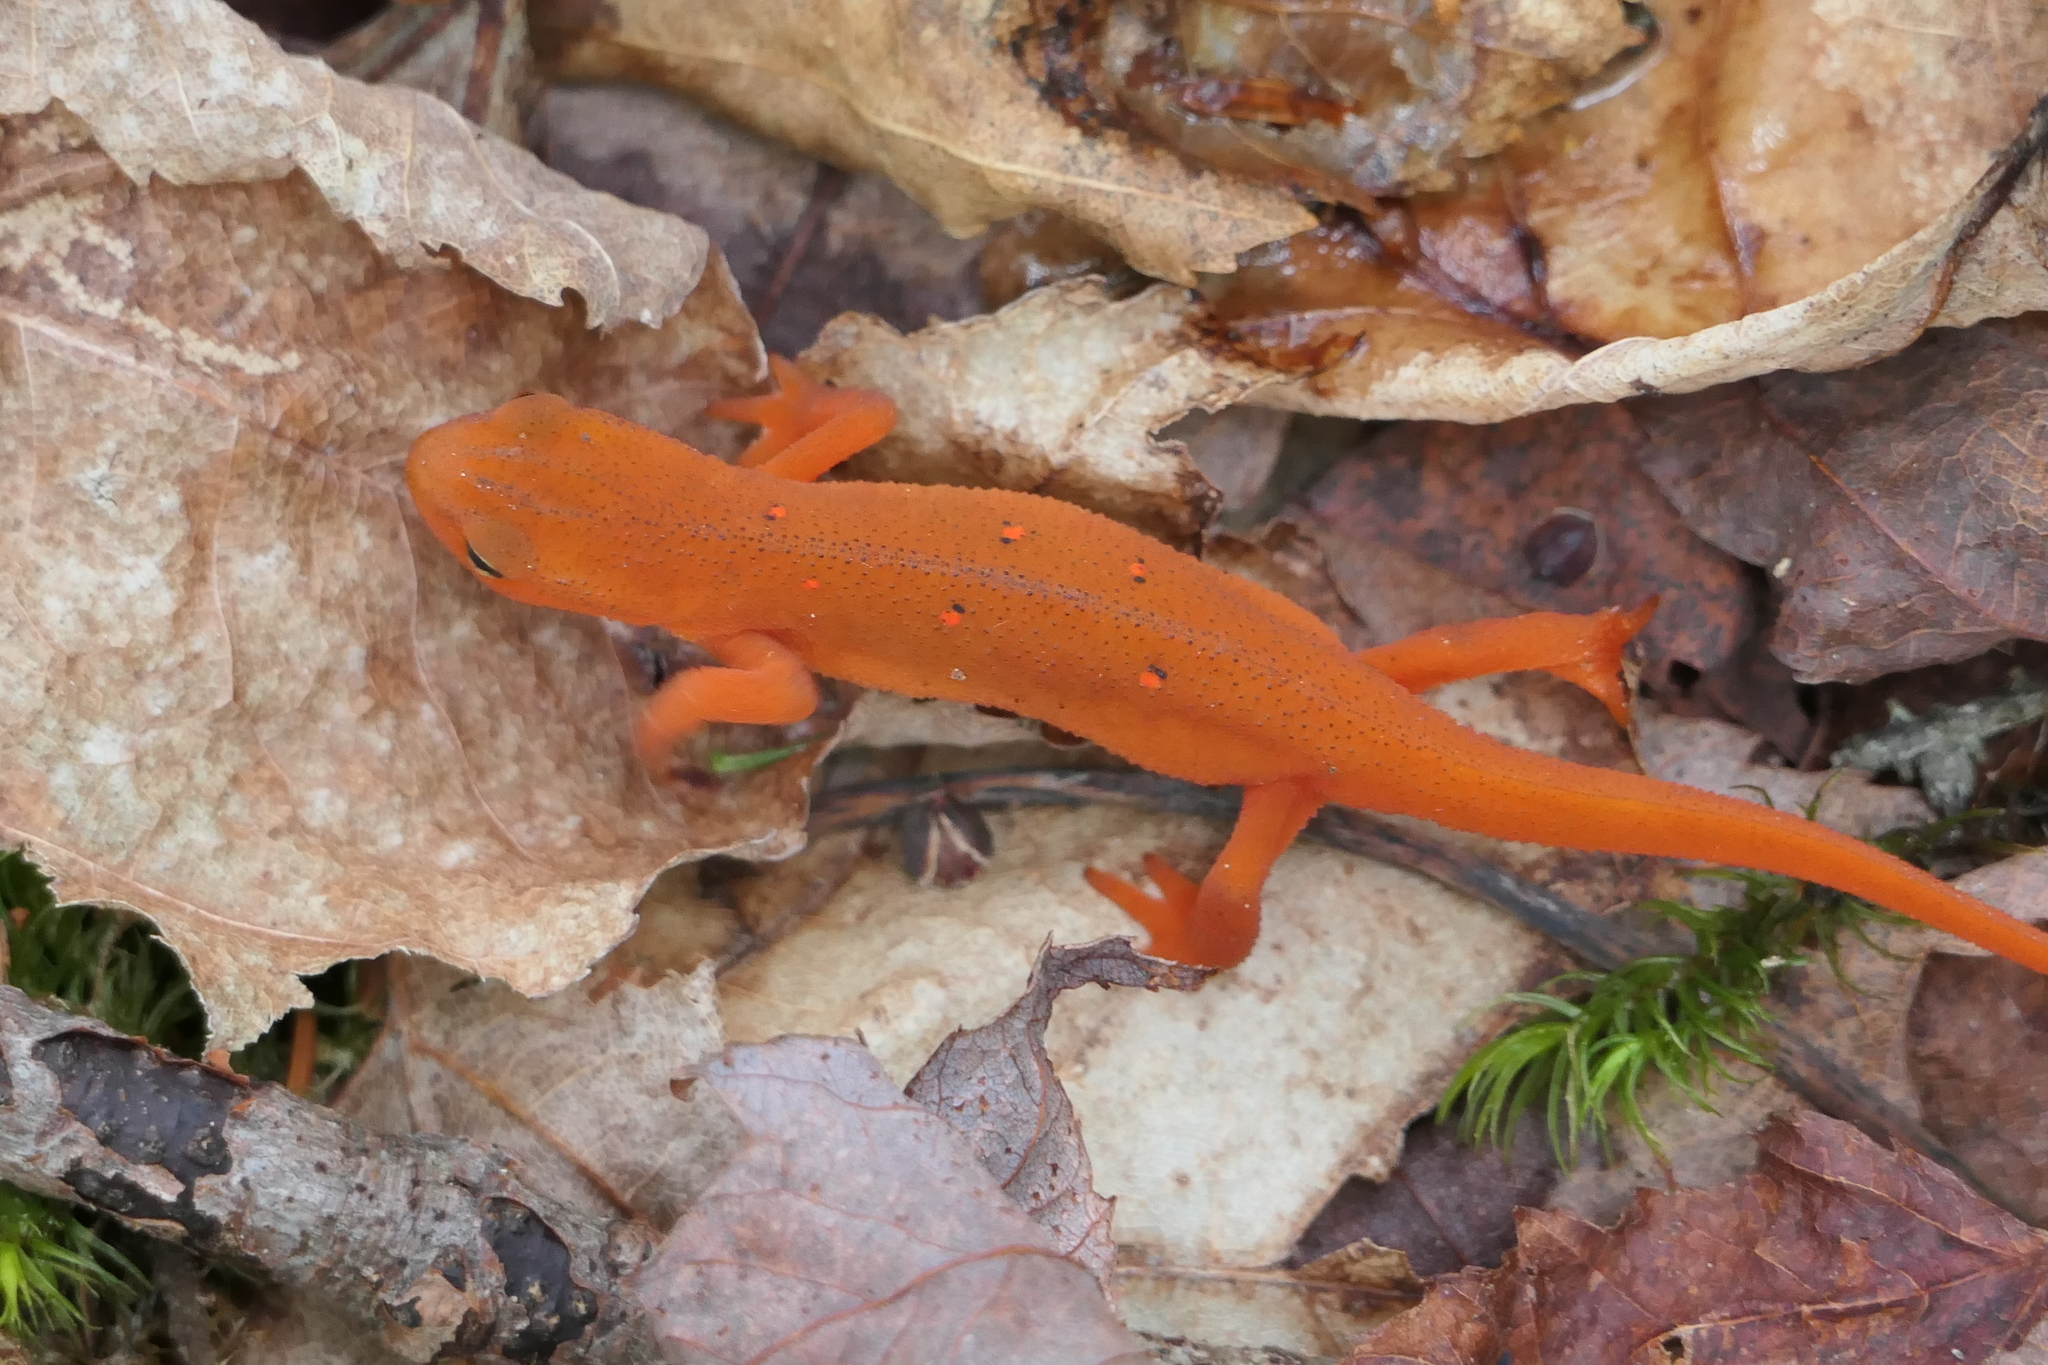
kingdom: Animalia
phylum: Chordata
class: Amphibia
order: Caudata
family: Salamandridae
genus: Notophthalmus
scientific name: Notophthalmus viridescens
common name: Eastern newt
